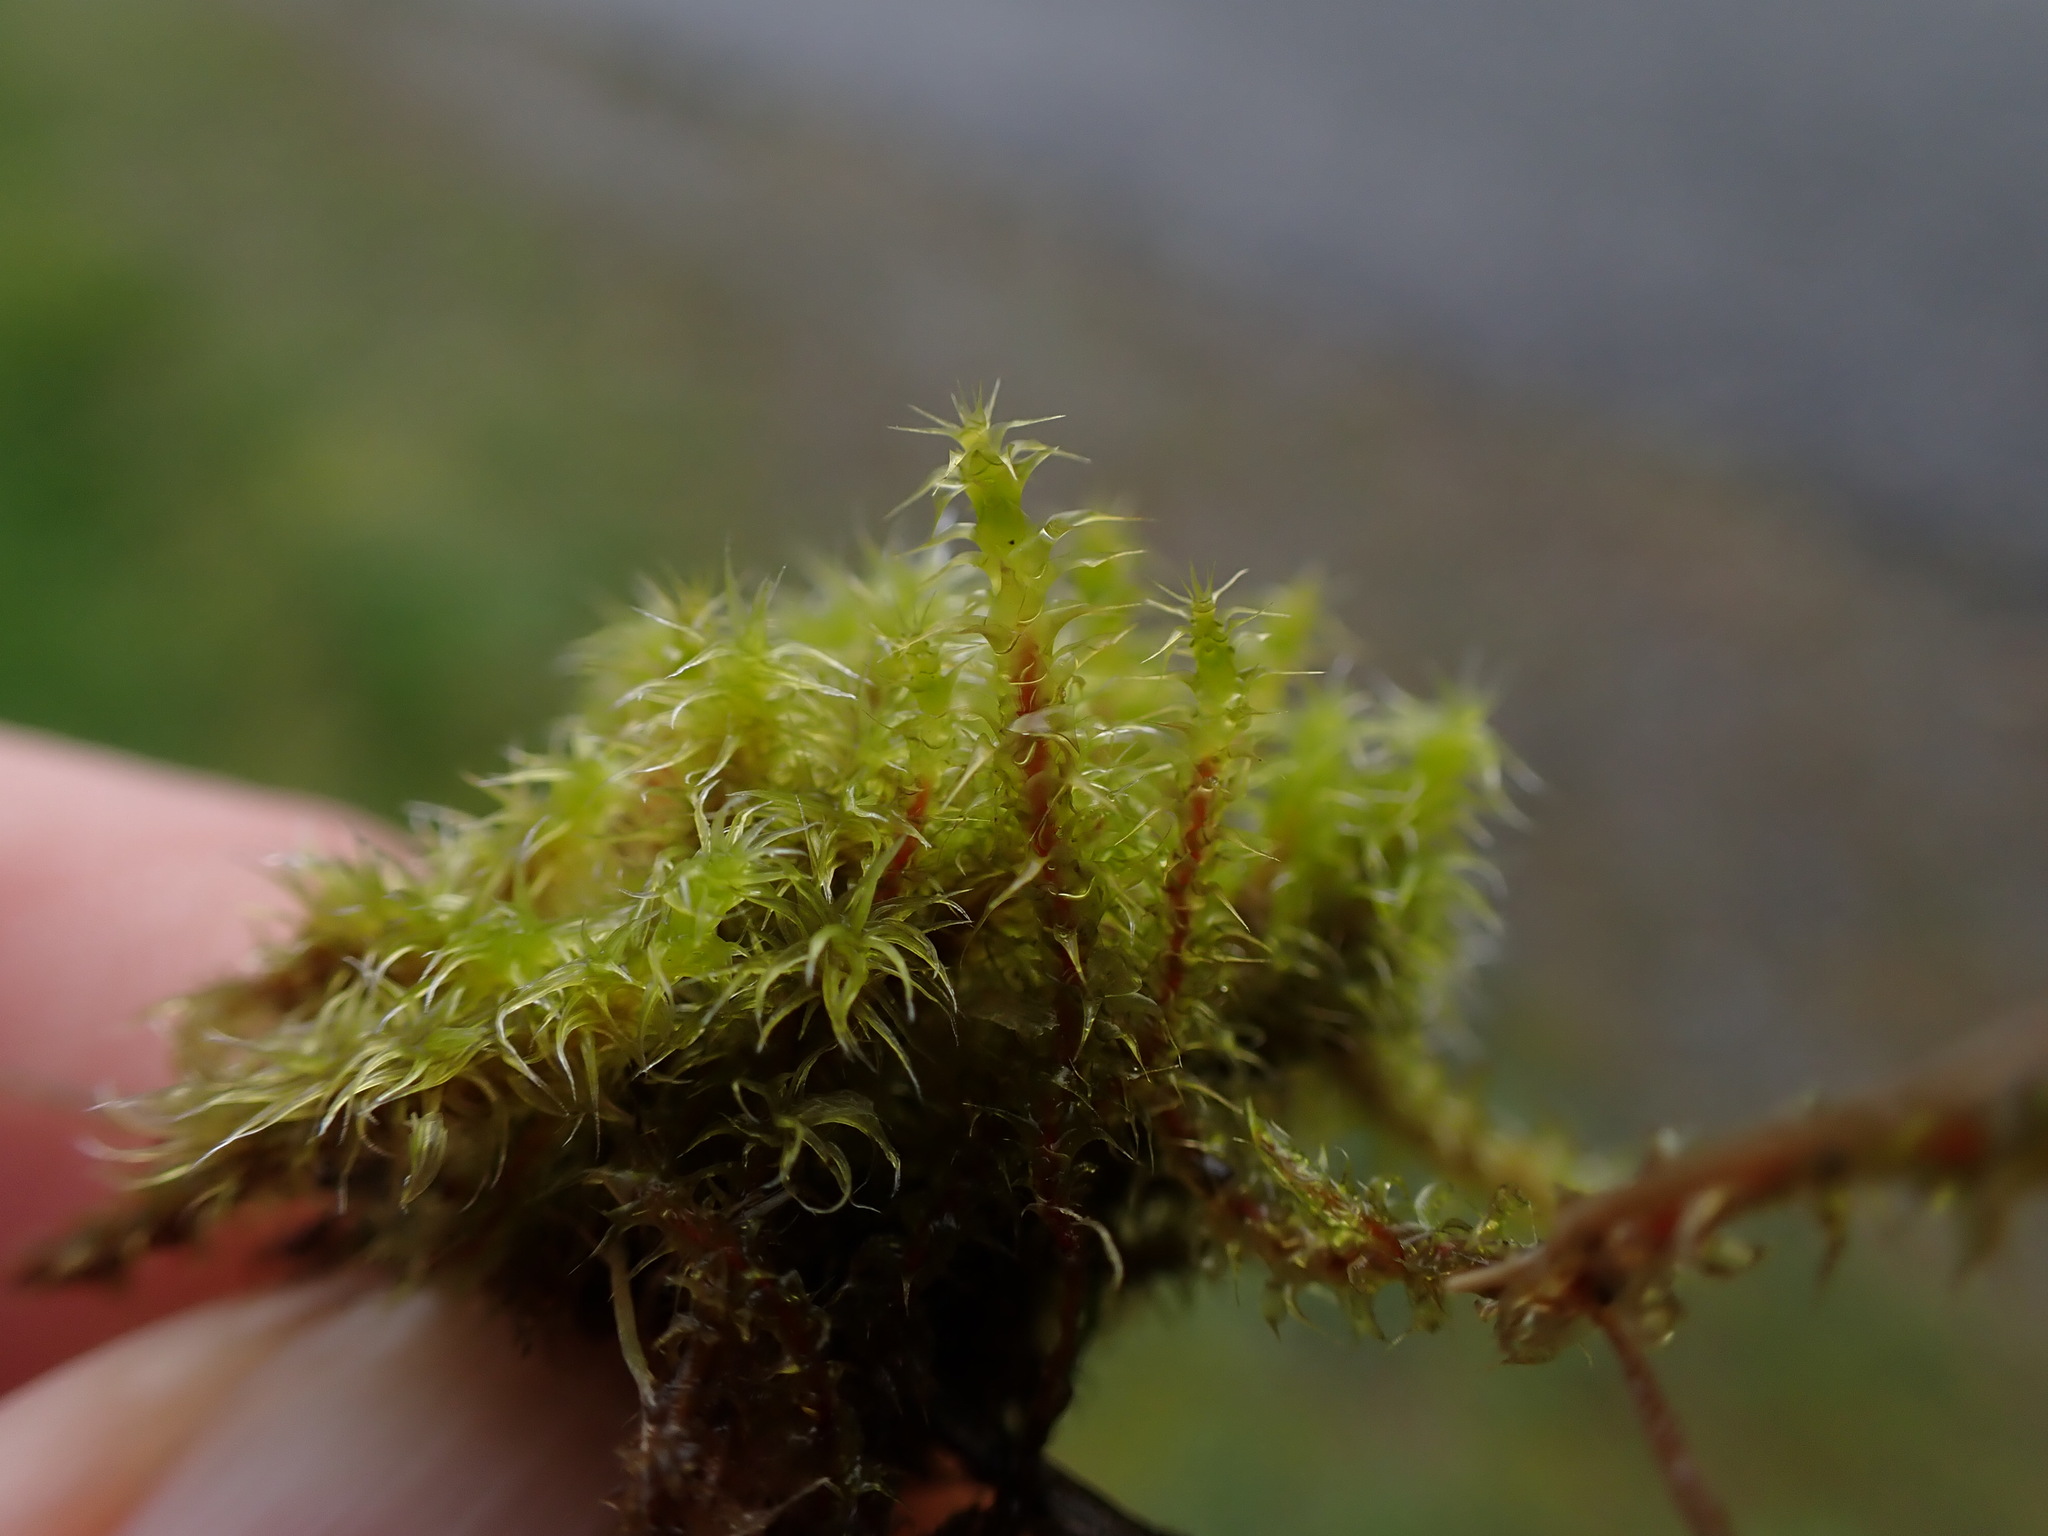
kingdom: Plantae
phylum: Bryophyta
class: Bryopsida
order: Hypnales
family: Hylocomiaceae
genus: Rhytidiadelphus
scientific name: Rhytidiadelphus squarrosus
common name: Springy turf-moss
